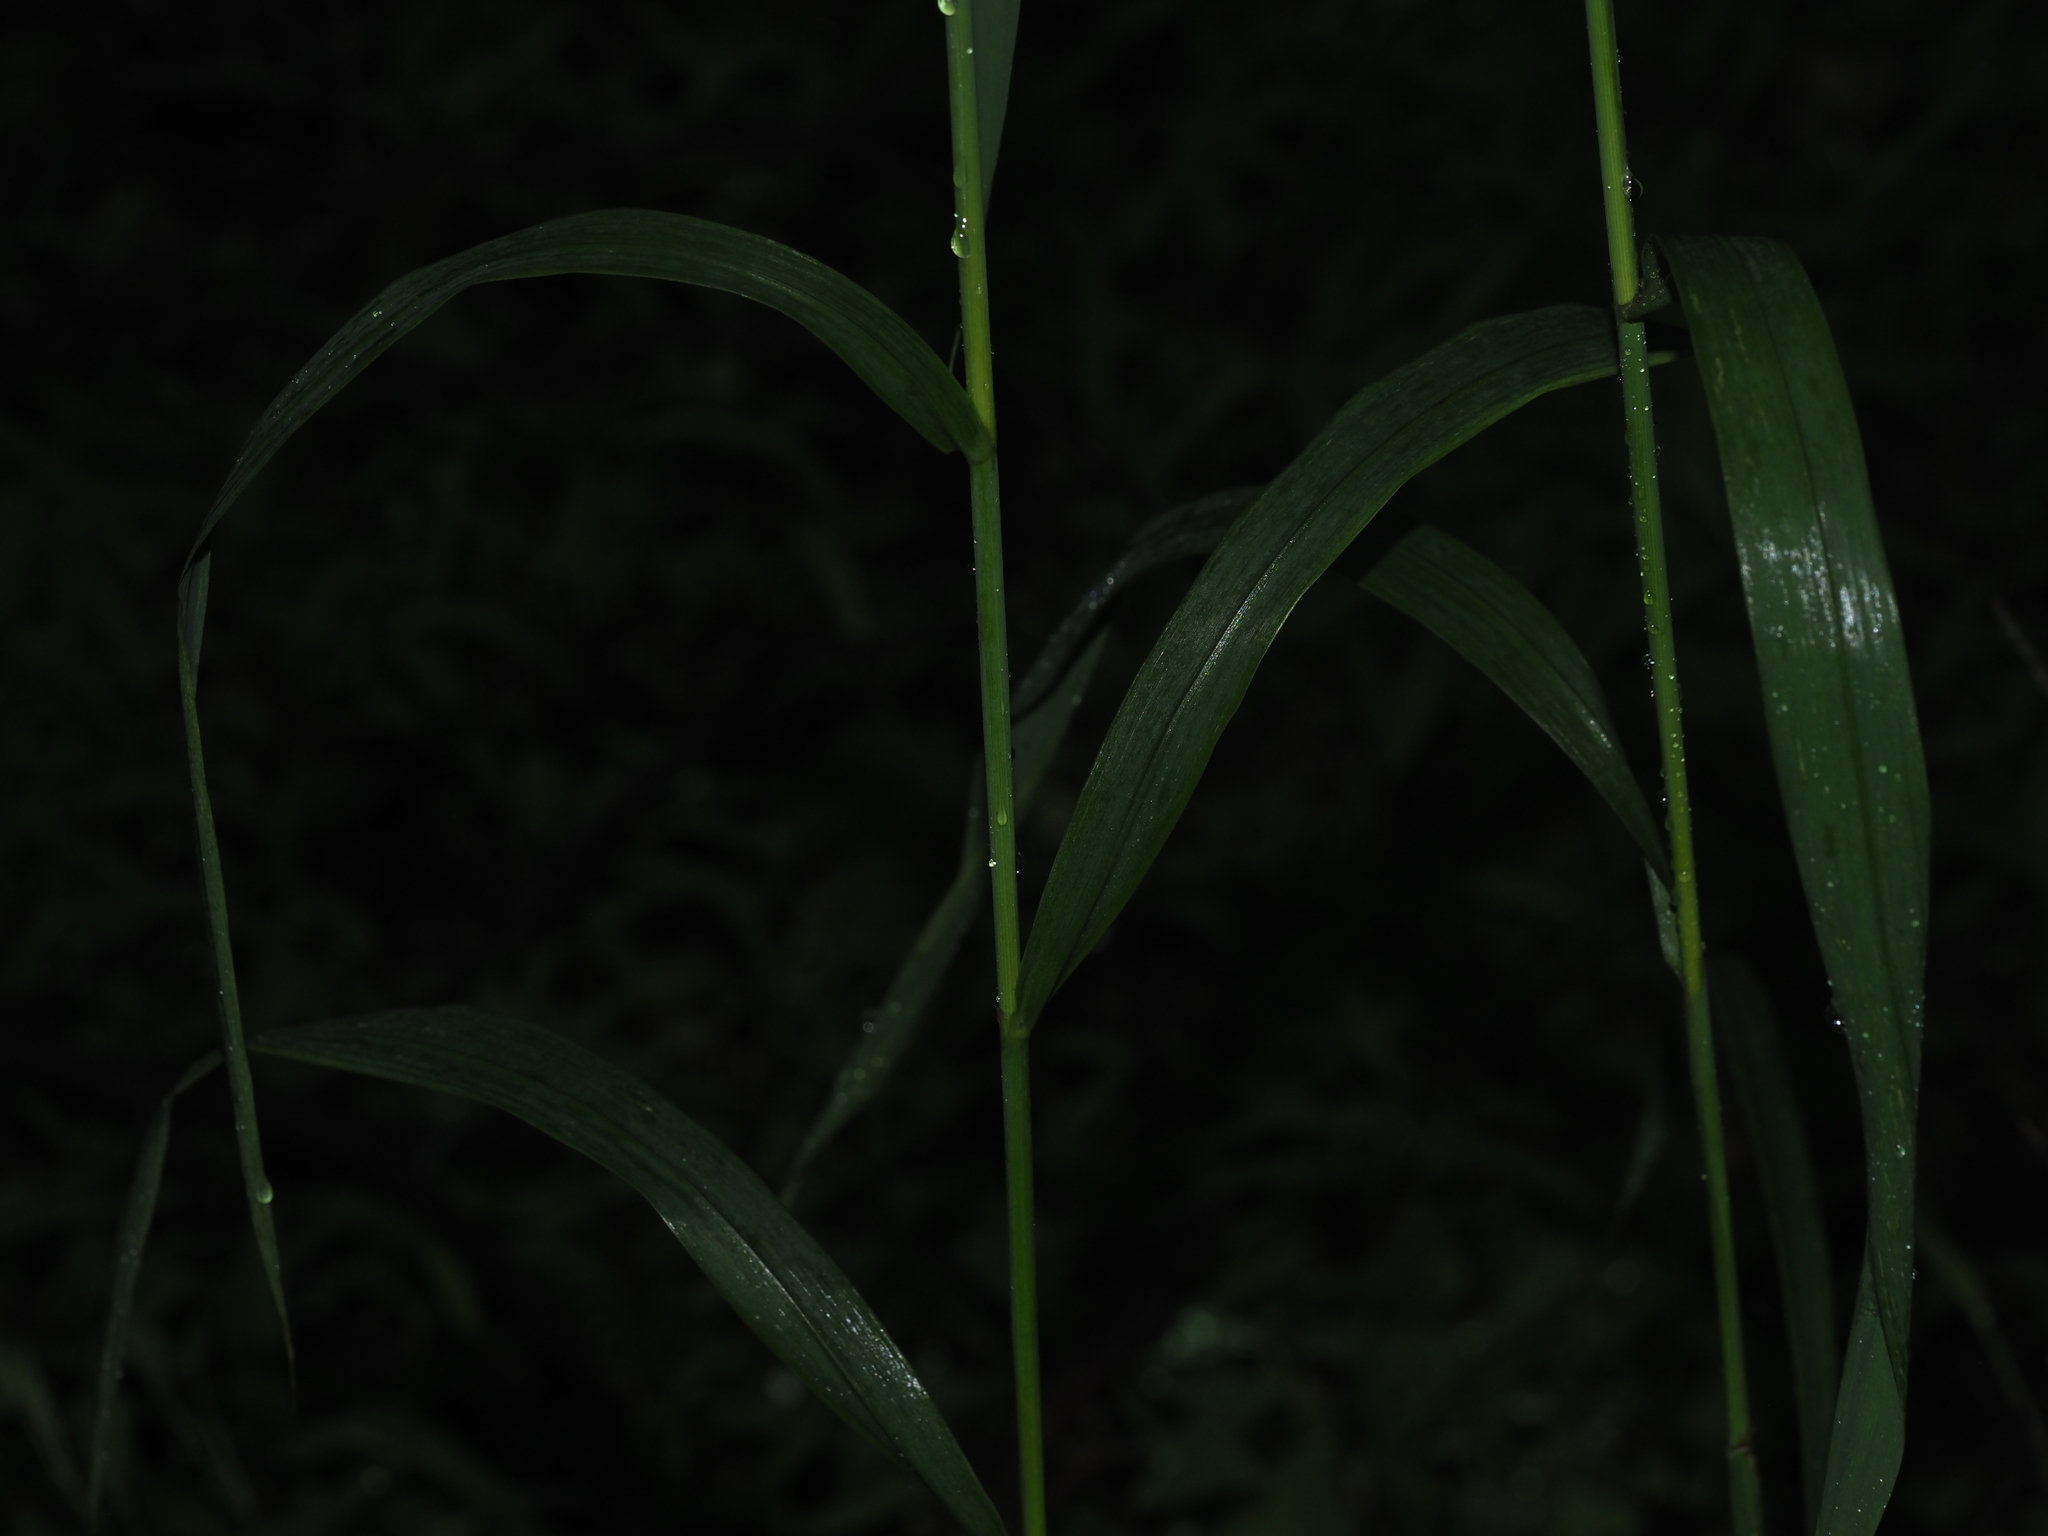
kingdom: Plantae
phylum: Tracheophyta
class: Liliopsida
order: Poales
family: Poaceae
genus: Cinna
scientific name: Cinna arundinacea
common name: Stout woodreed
